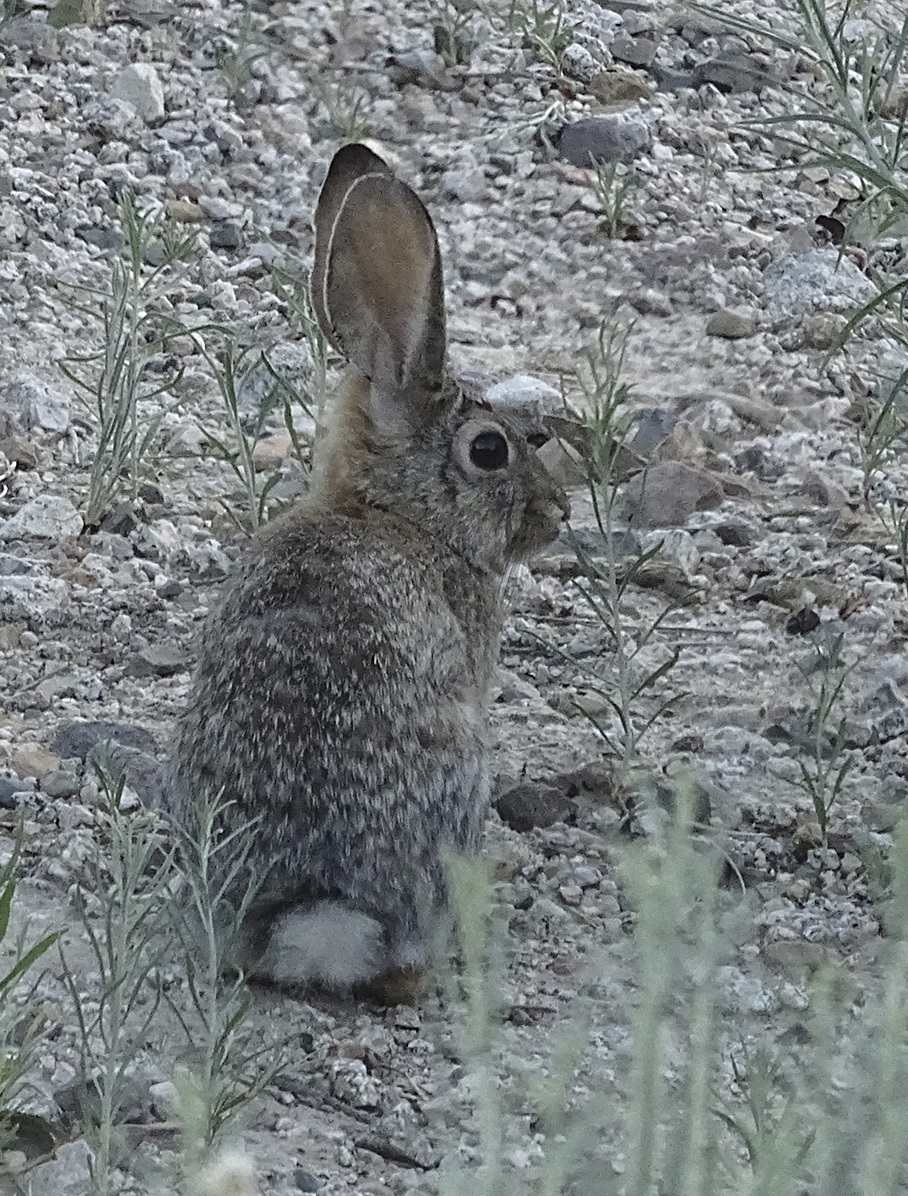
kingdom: Animalia
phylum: Chordata
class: Mammalia
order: Lagomorpha
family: Leporidae
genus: Sylvilagus
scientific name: Sylvilagus audubonii
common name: Desert cottontail
